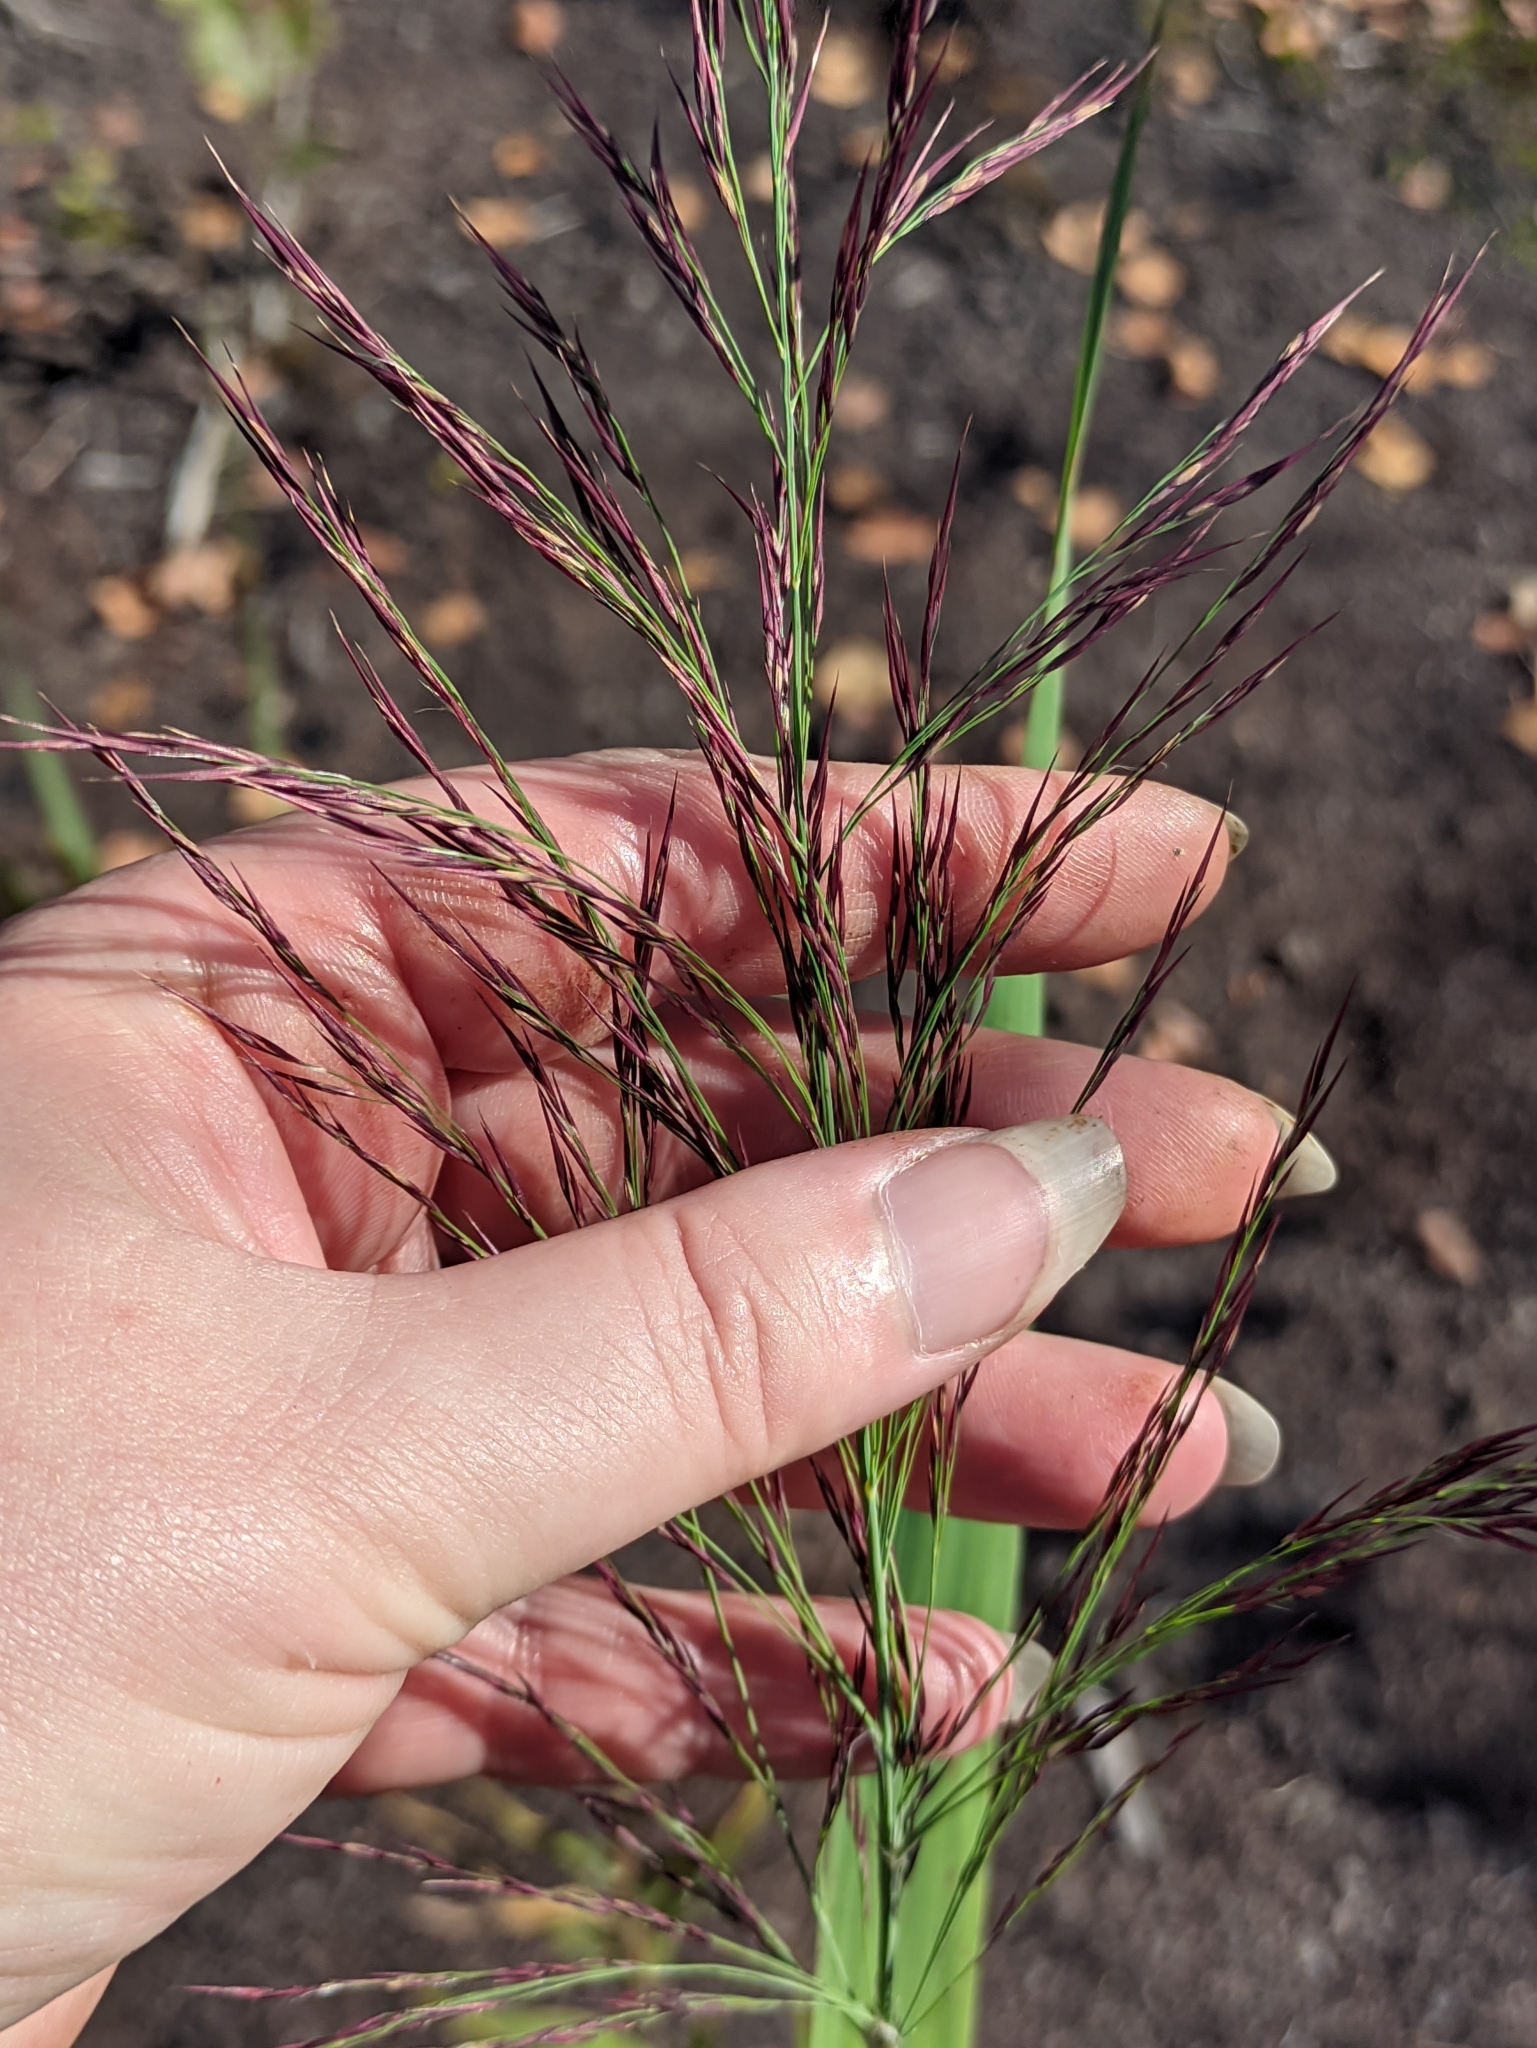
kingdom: Plantae
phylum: Tracheophyta
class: Liliopsida
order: Poales
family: Poaceae
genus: Phragmites
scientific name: Phragmites australis
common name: Common reed
